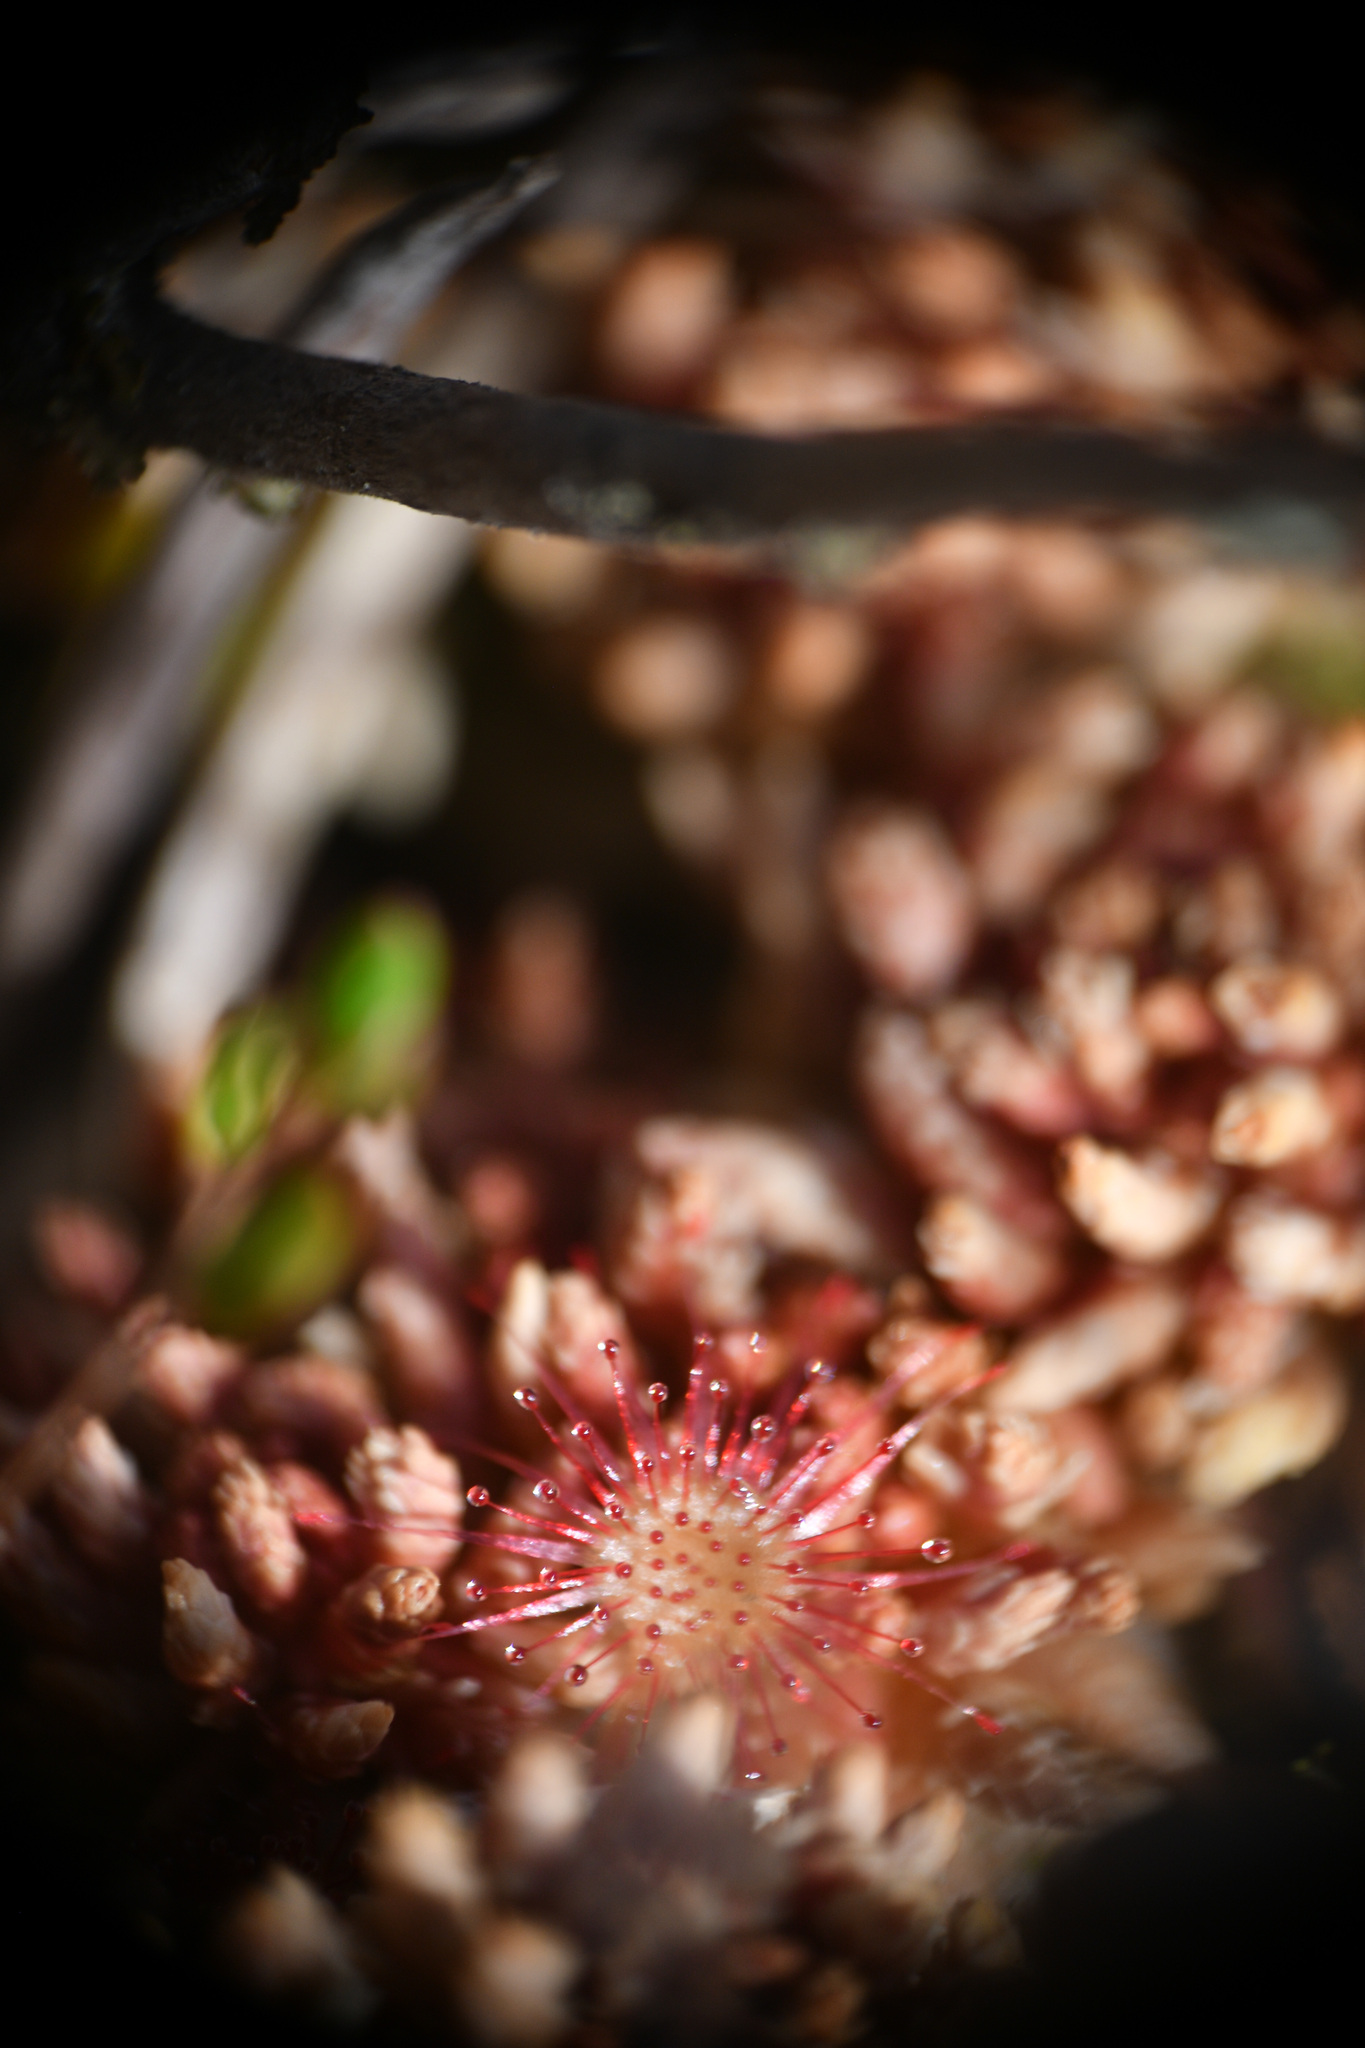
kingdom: Plantae
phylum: Tracheophyta
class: Magnoliopsida
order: Caryophyllales
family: Droseraceae
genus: Drosera
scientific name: Drosera rotundifolia
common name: Round-leaved sundew
